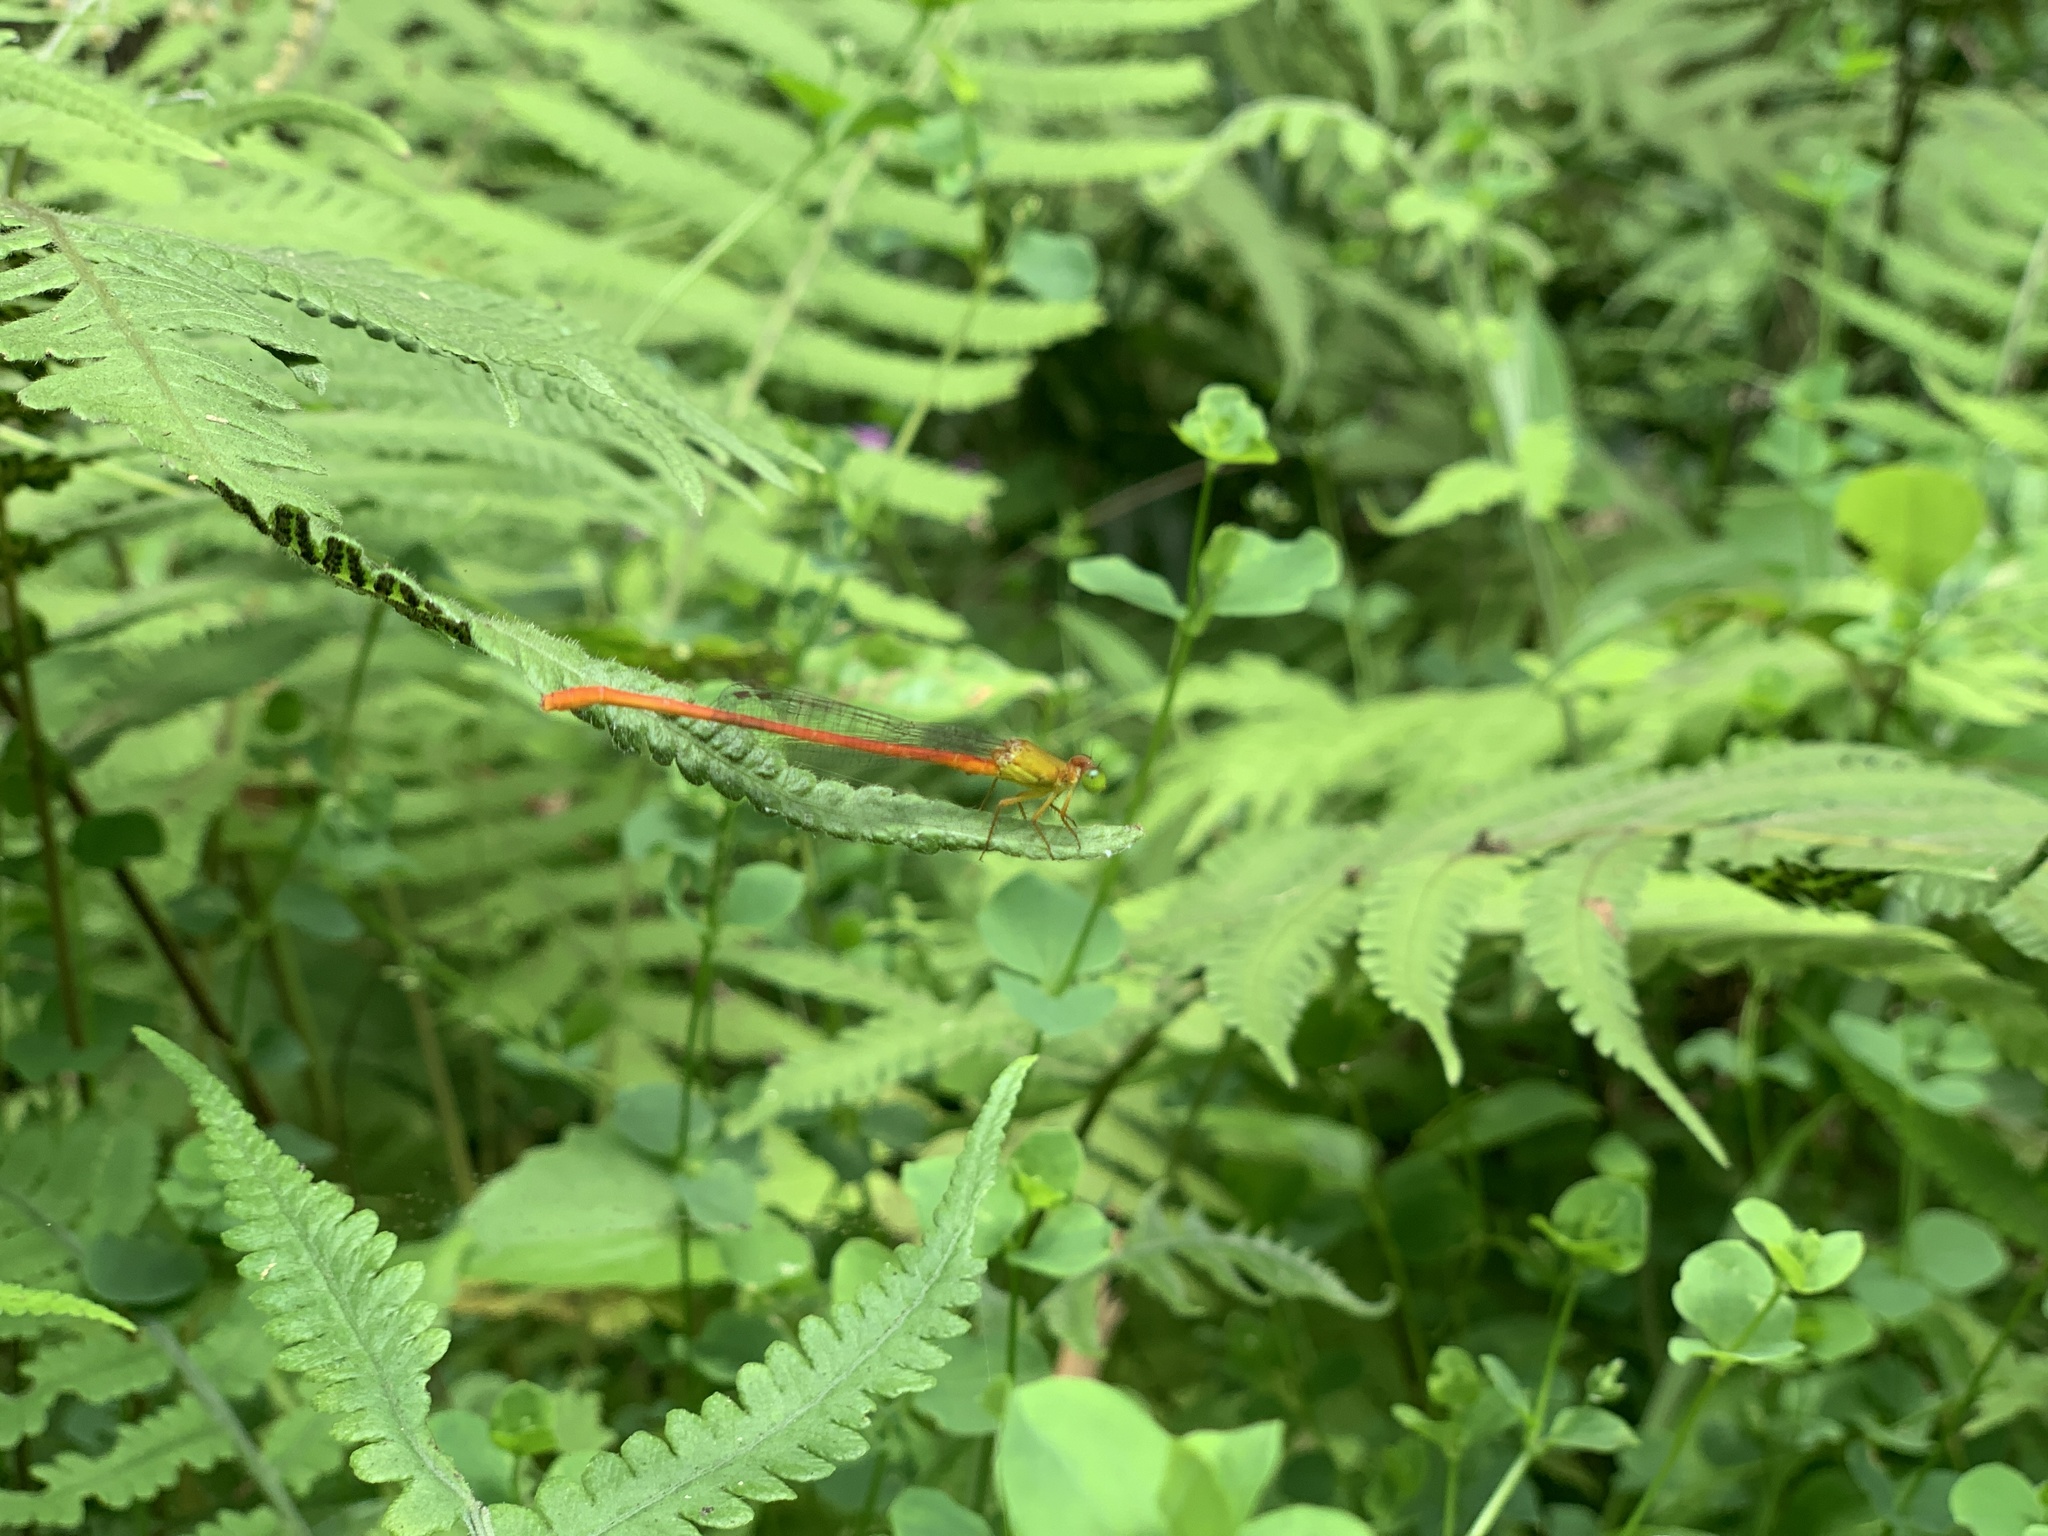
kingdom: Animalia
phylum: Arthropoda
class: Insecta
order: Odonata
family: Coenagrionidae
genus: Ceriagrion
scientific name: Ceriagrion auranticum
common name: Orange-tailed sprite
